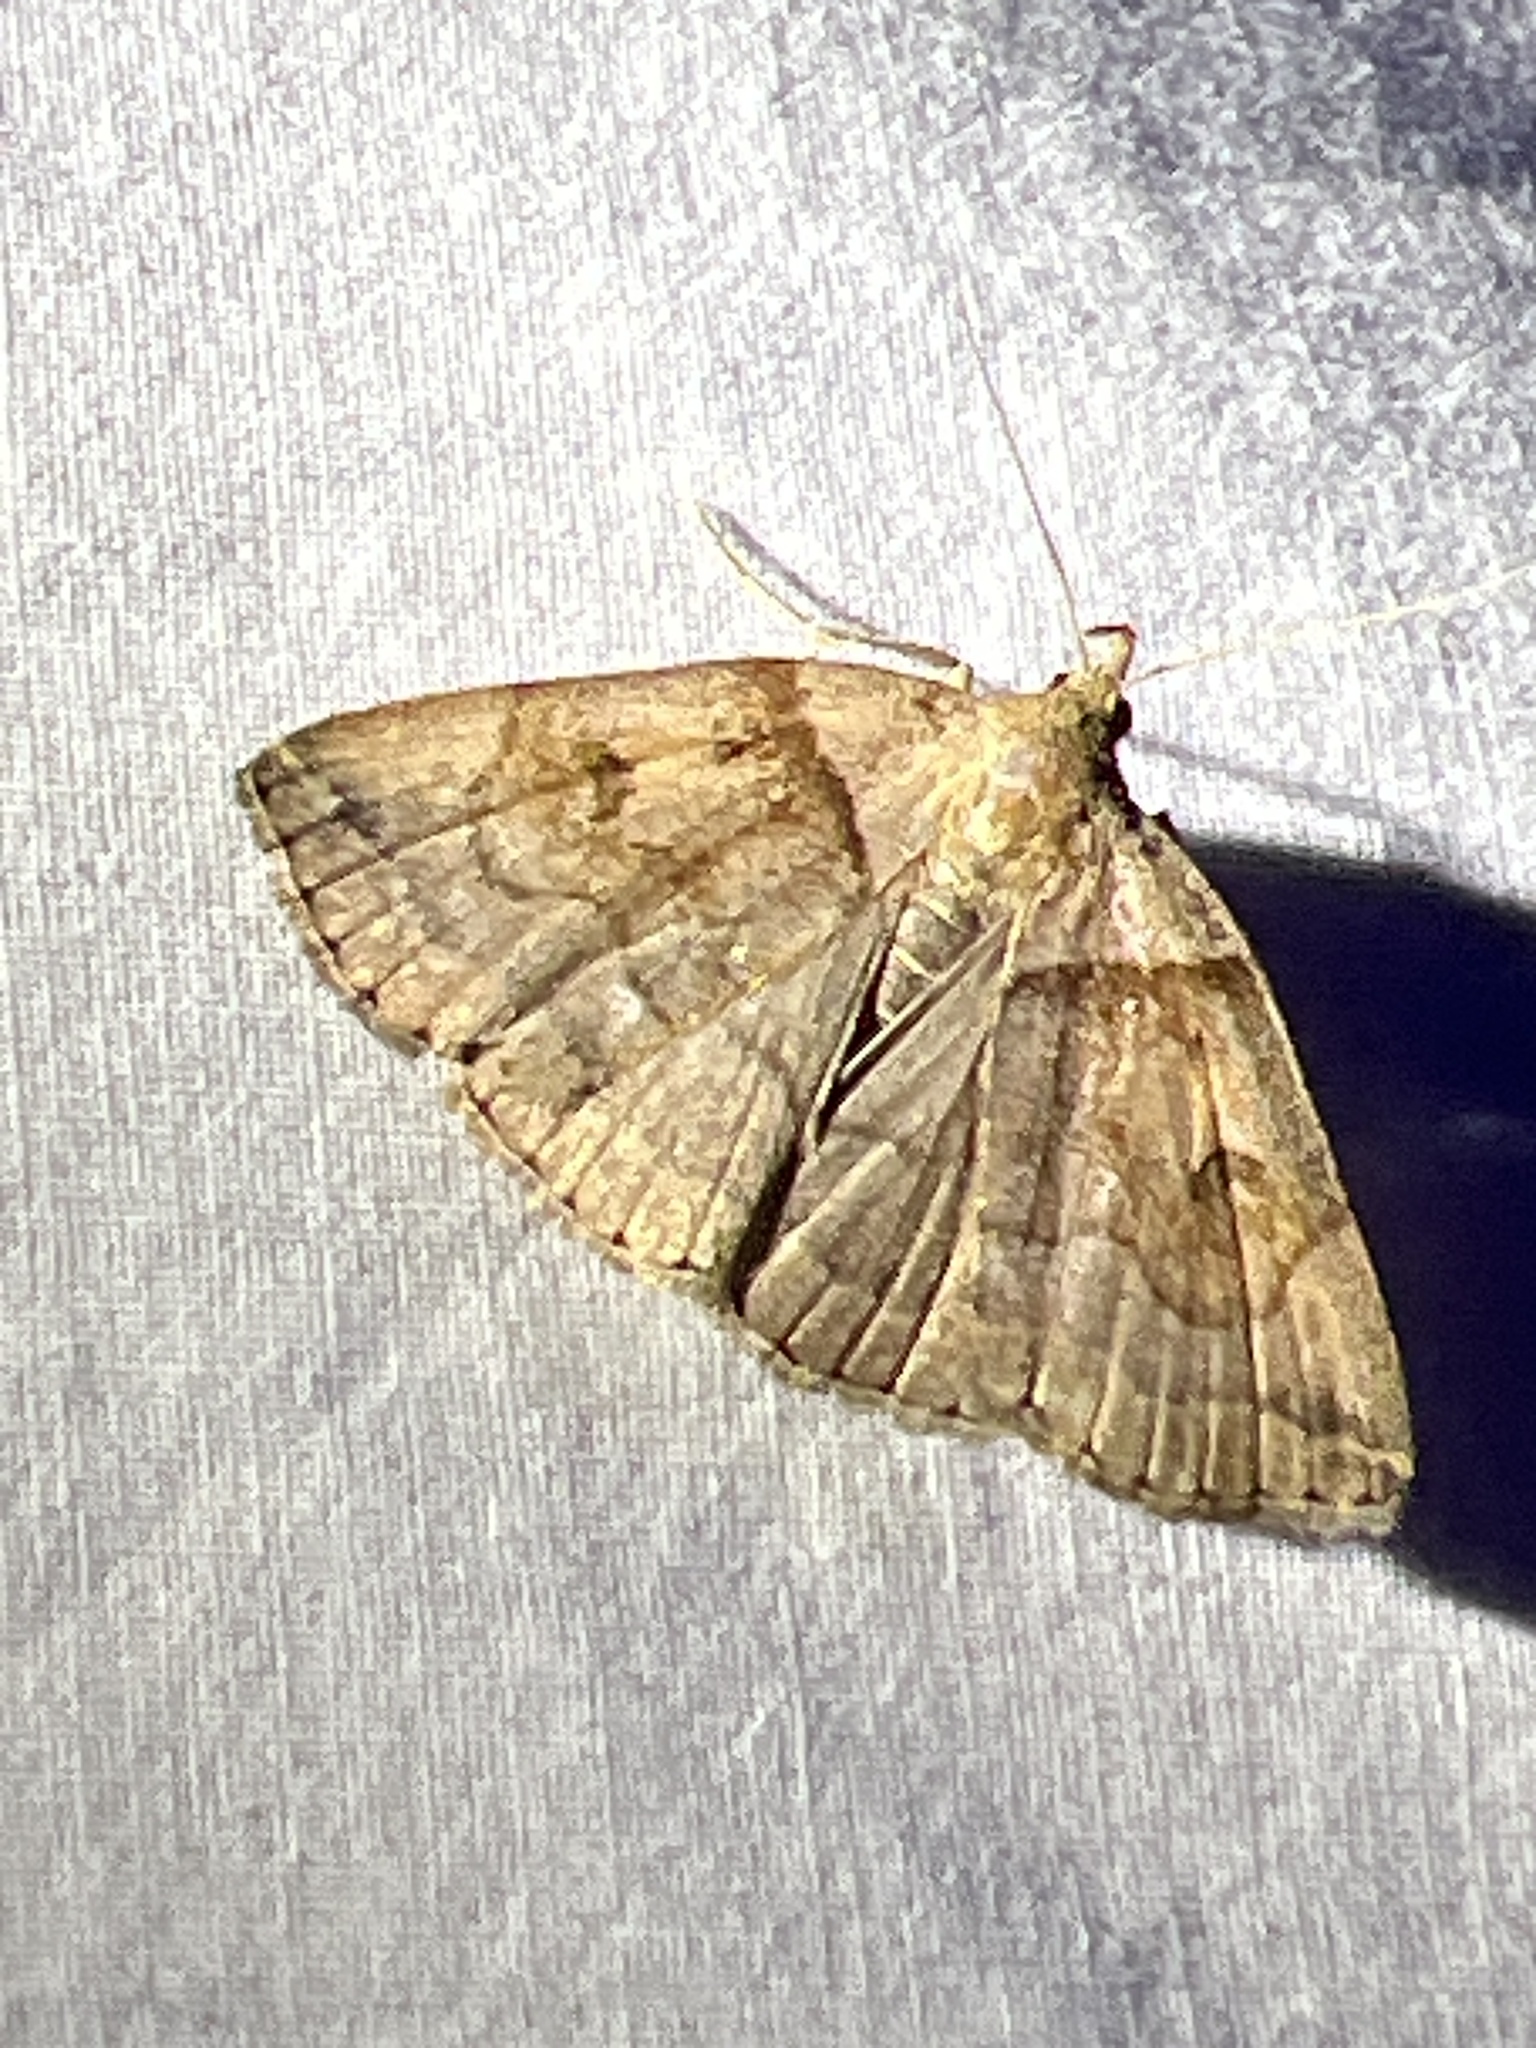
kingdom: Animalia
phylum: Arthropoda
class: Insecta
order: Lepidoptera
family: Erebidae
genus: Zanclognatha
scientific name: Zanclognatha laevigata
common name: Variable fan-foot
